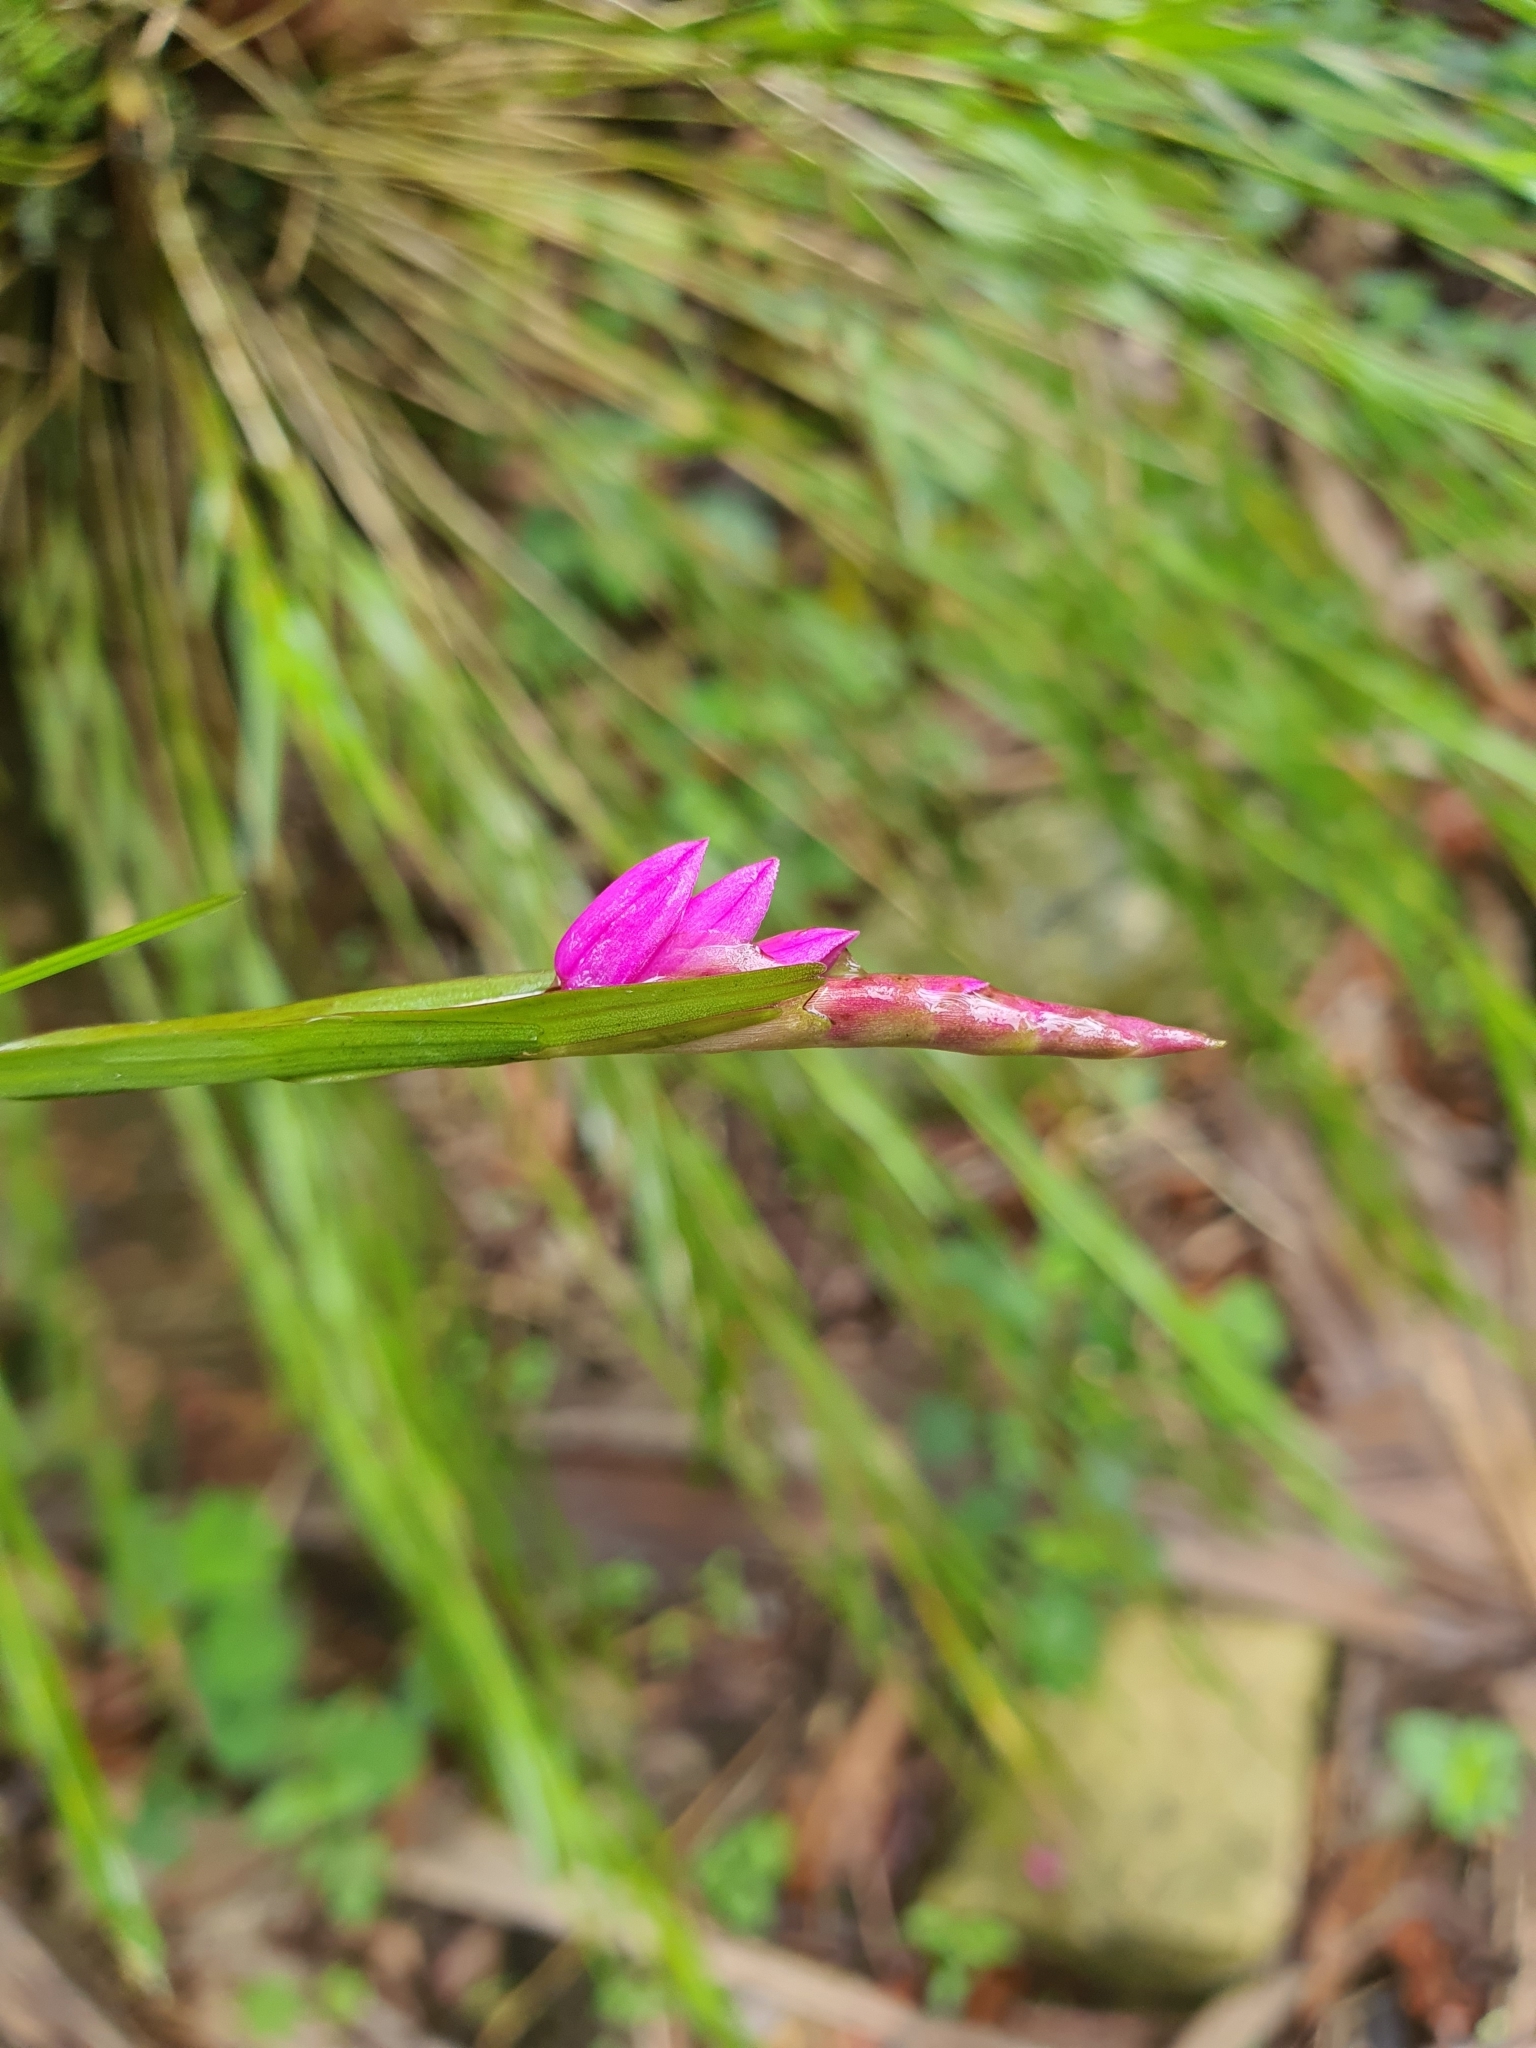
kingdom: Plantae
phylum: Tracheophyta
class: Liliopsida
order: Asparagales
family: Orchidaceae
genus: Isochilus
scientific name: Isochilus latibracteatus
